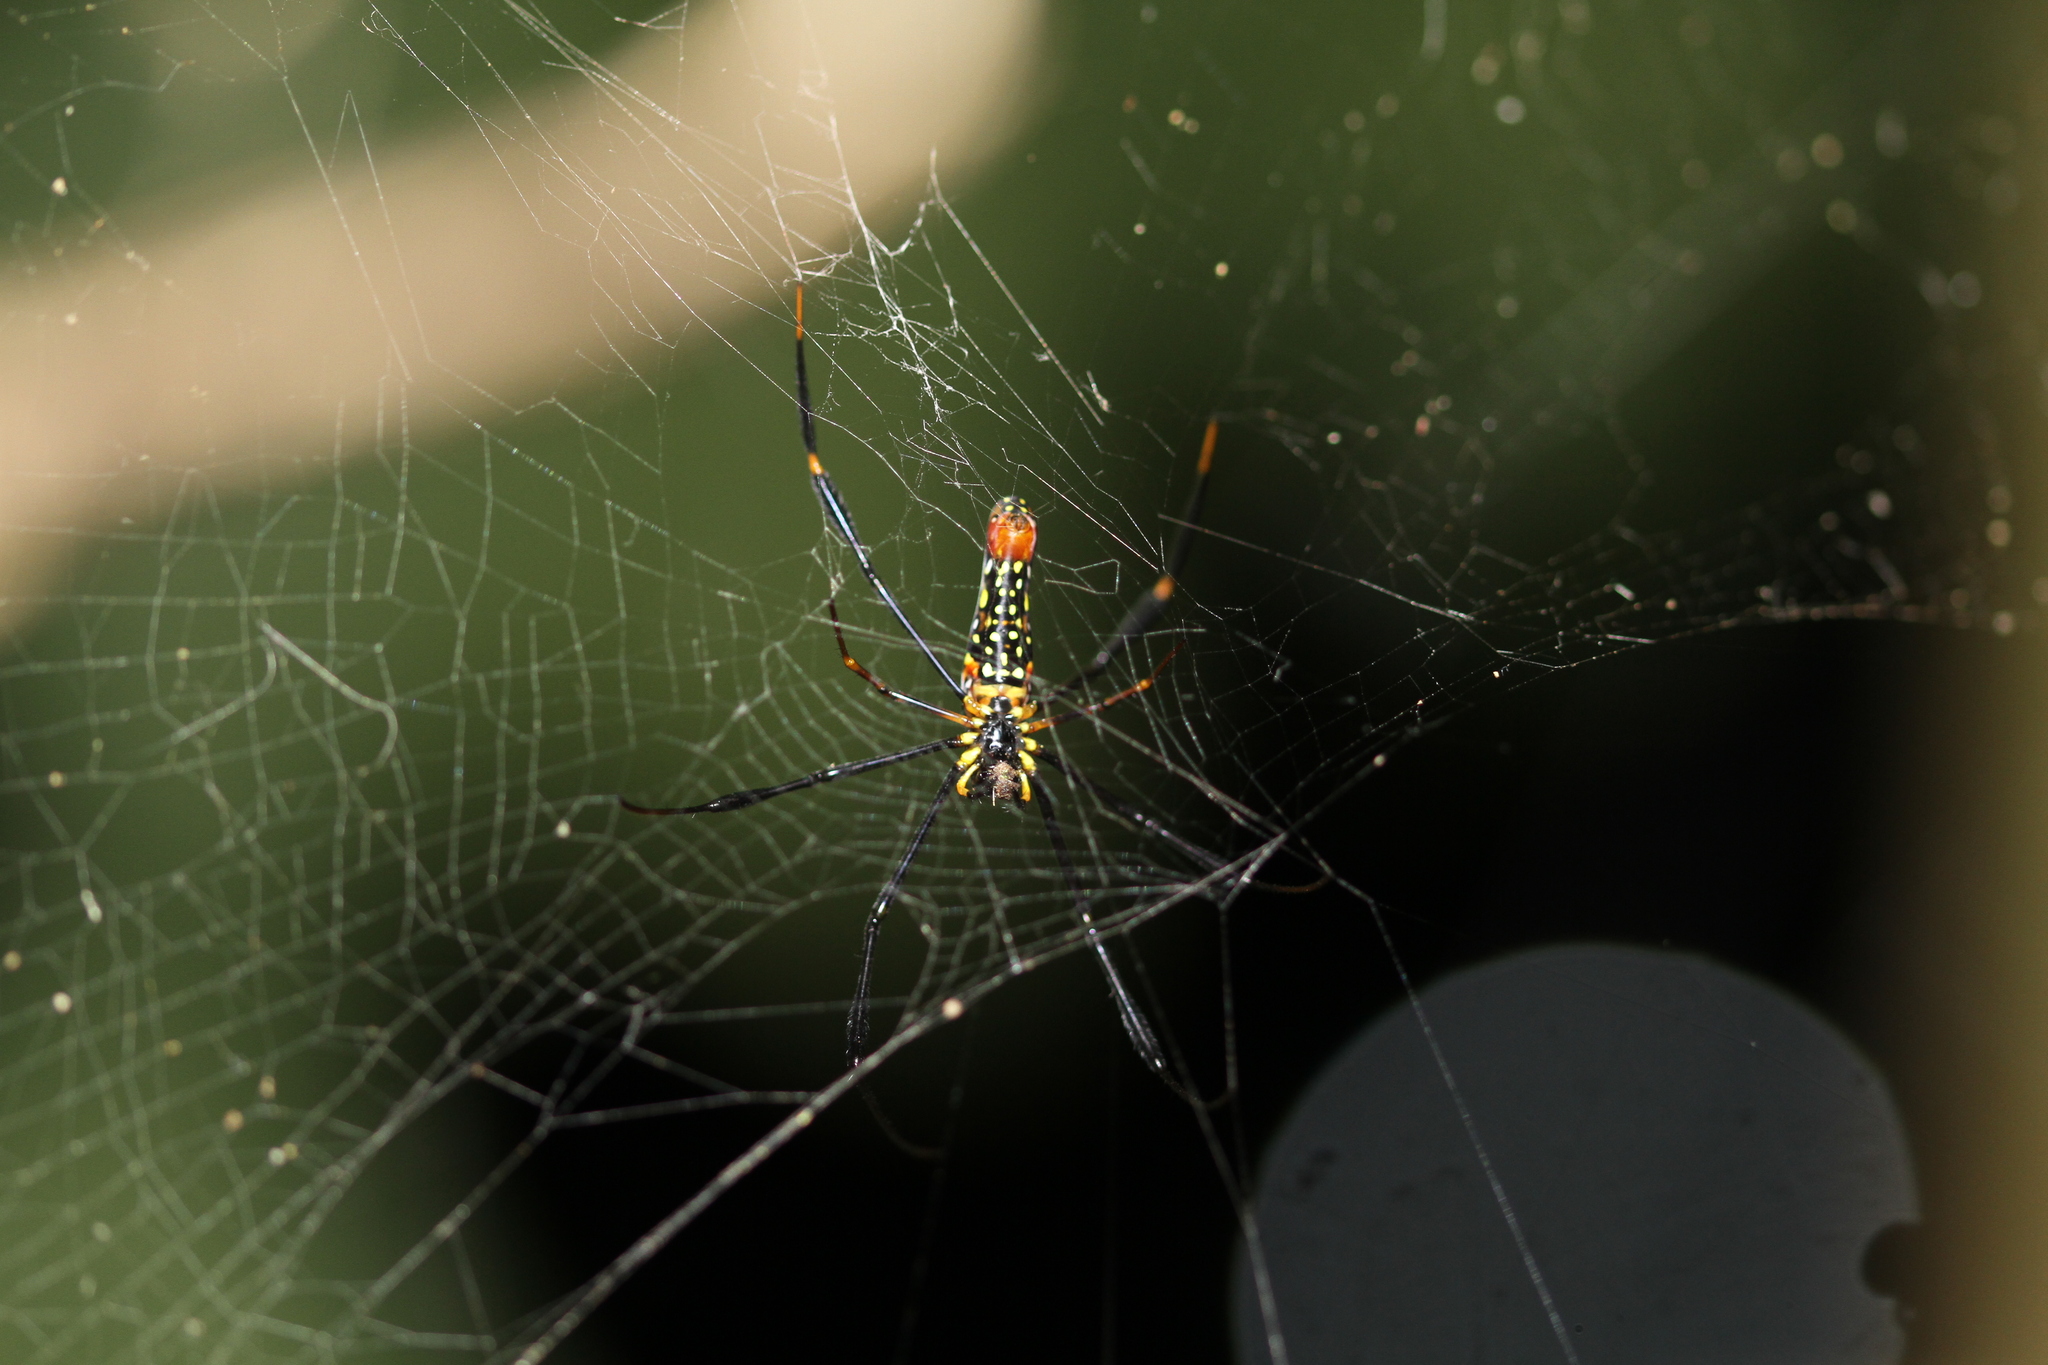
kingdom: Animalia
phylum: Arthropoda
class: Arachnida
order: Araneae
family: Araneidae
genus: Nephila
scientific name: Nephila pilipes
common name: Giant golden orb weaver
